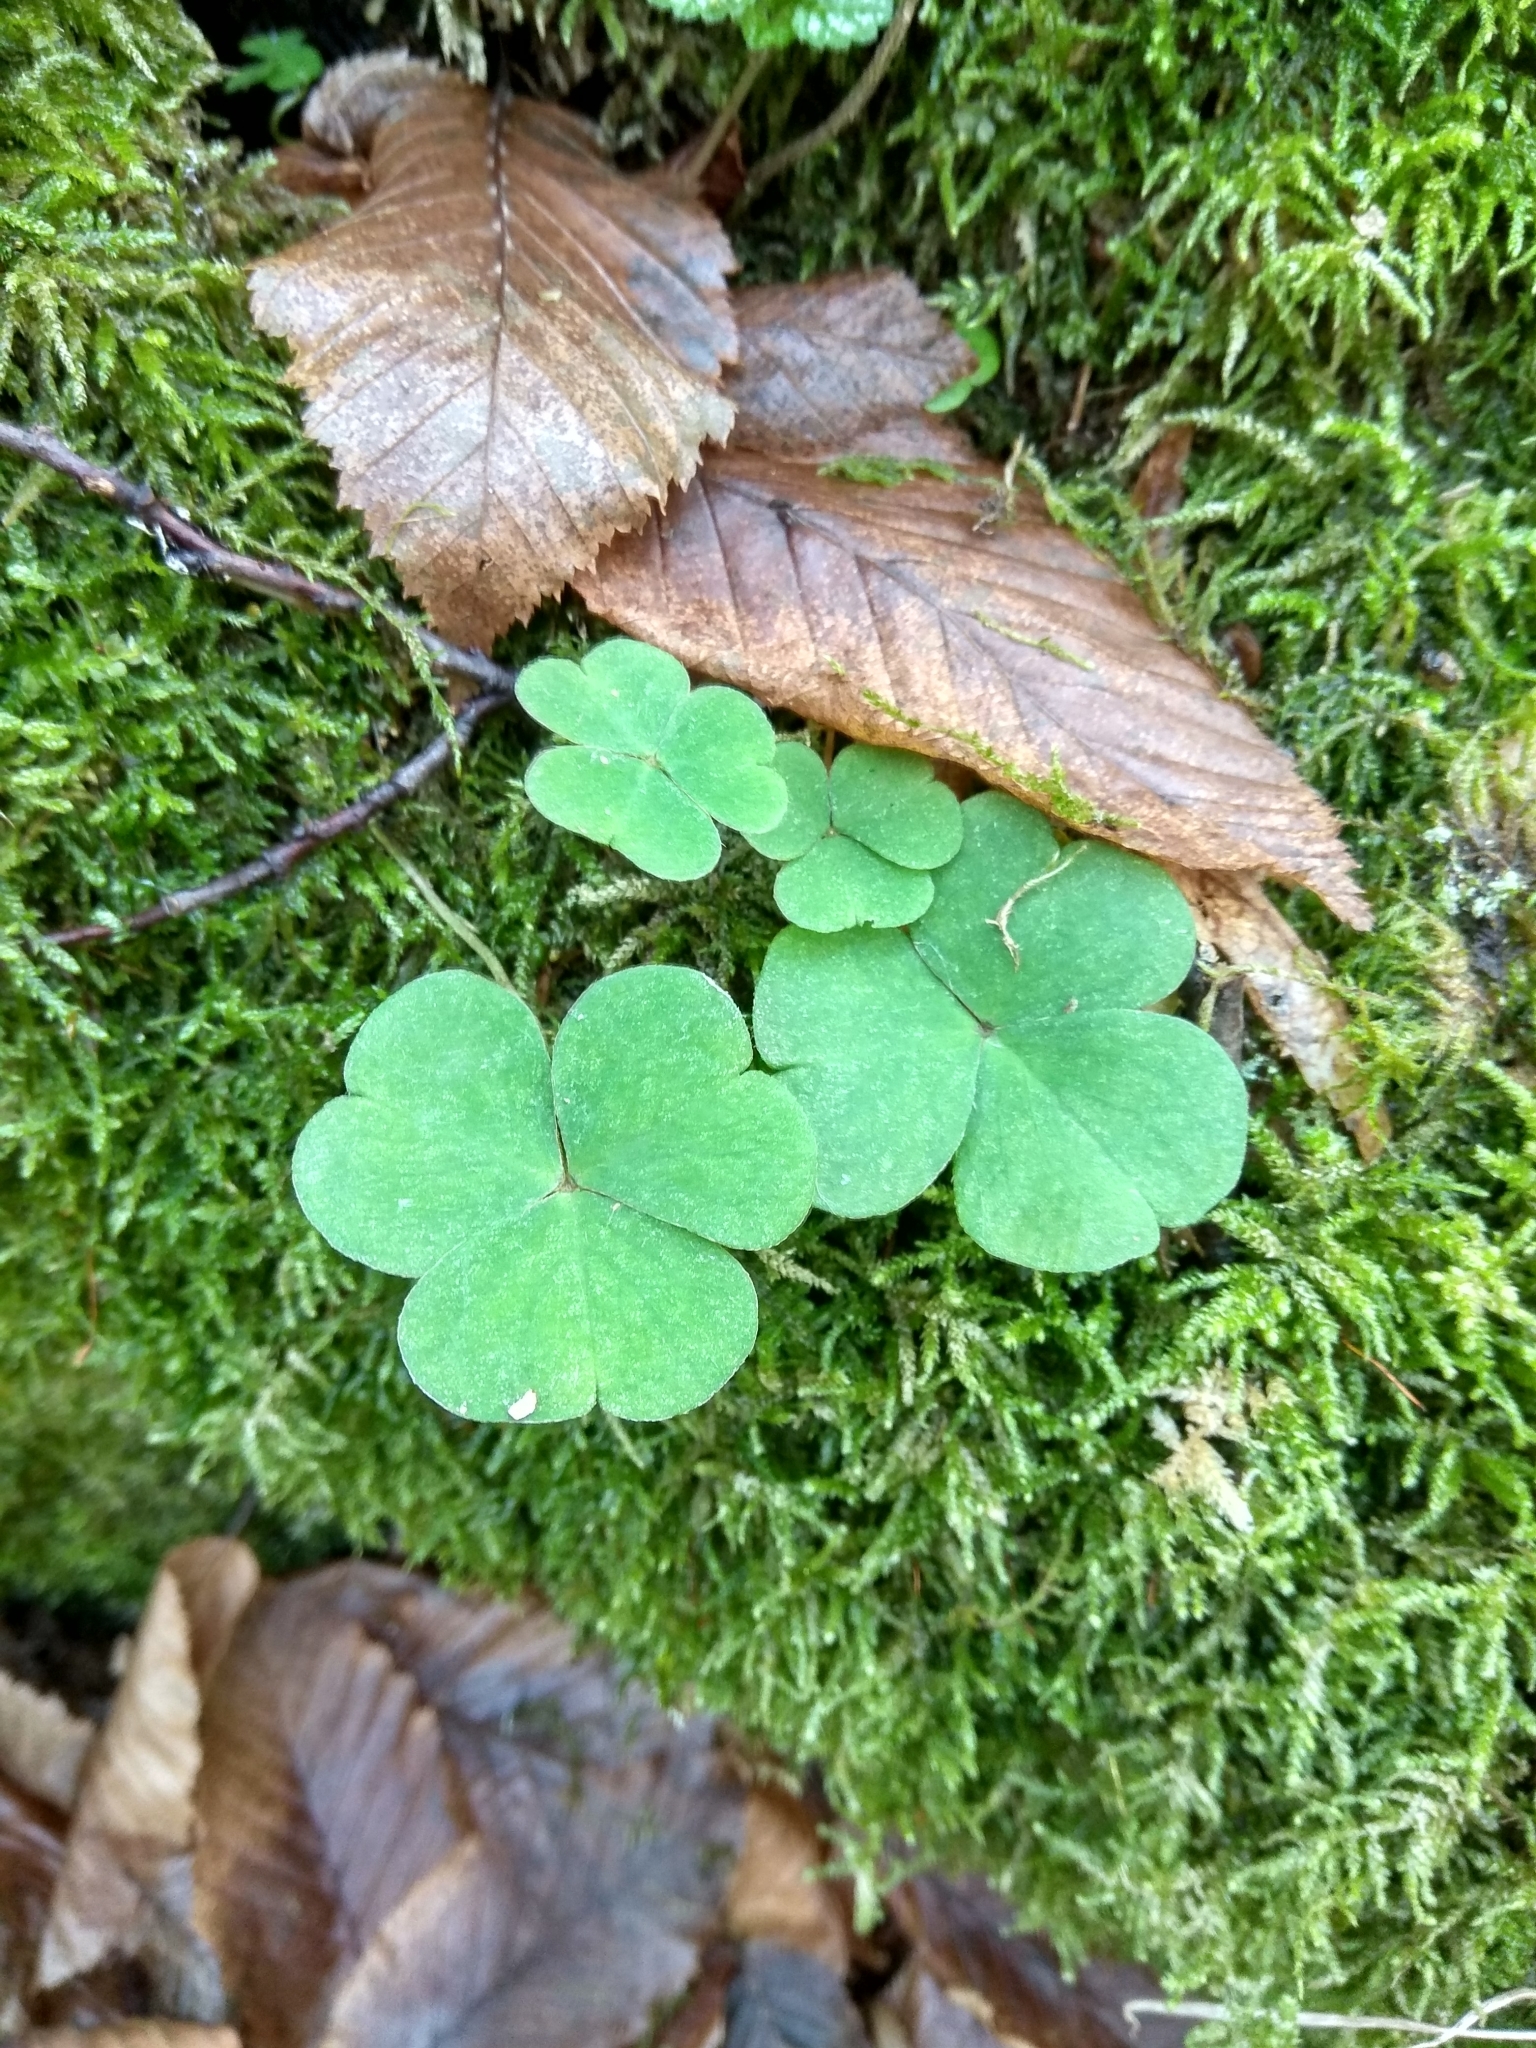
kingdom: Plantae
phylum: Tracheophyta
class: Magnoliopsida
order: Oxalidales
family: Oxalidaceae
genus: Oxalis
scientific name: Oxalis acetosella
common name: Wood-sorrel
